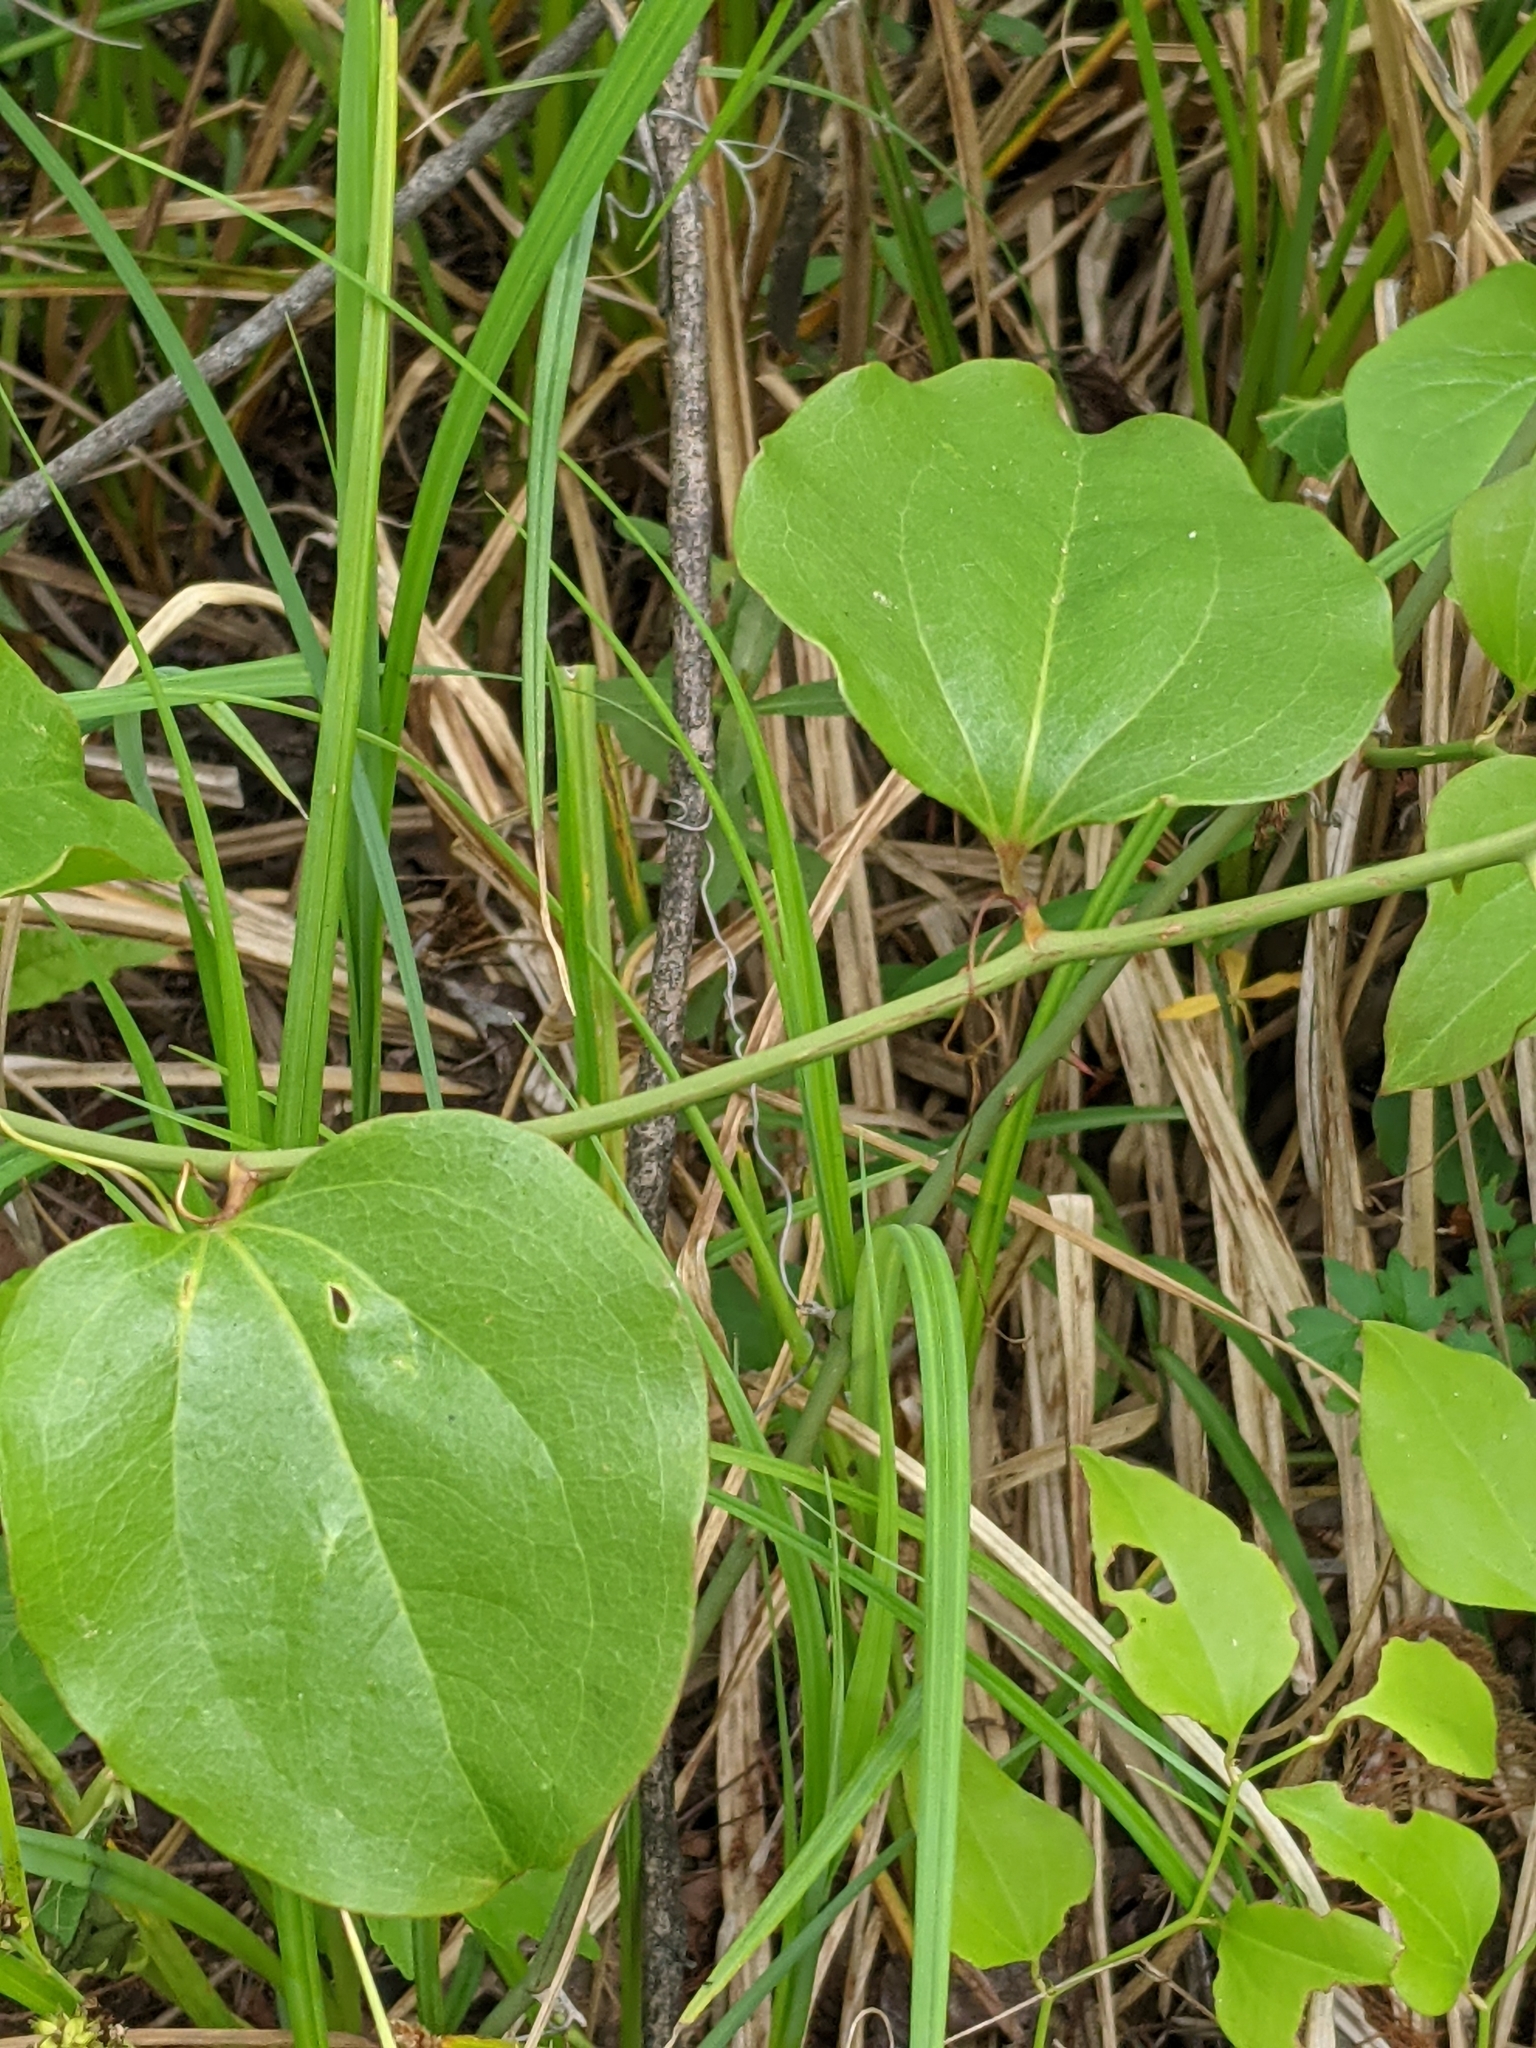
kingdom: Plantae
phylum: Tracheophyta
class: Liliopsida
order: Liliales
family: Smilacaceae
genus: Smilax
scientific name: Smilax rotundifolia
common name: Bullbriar
